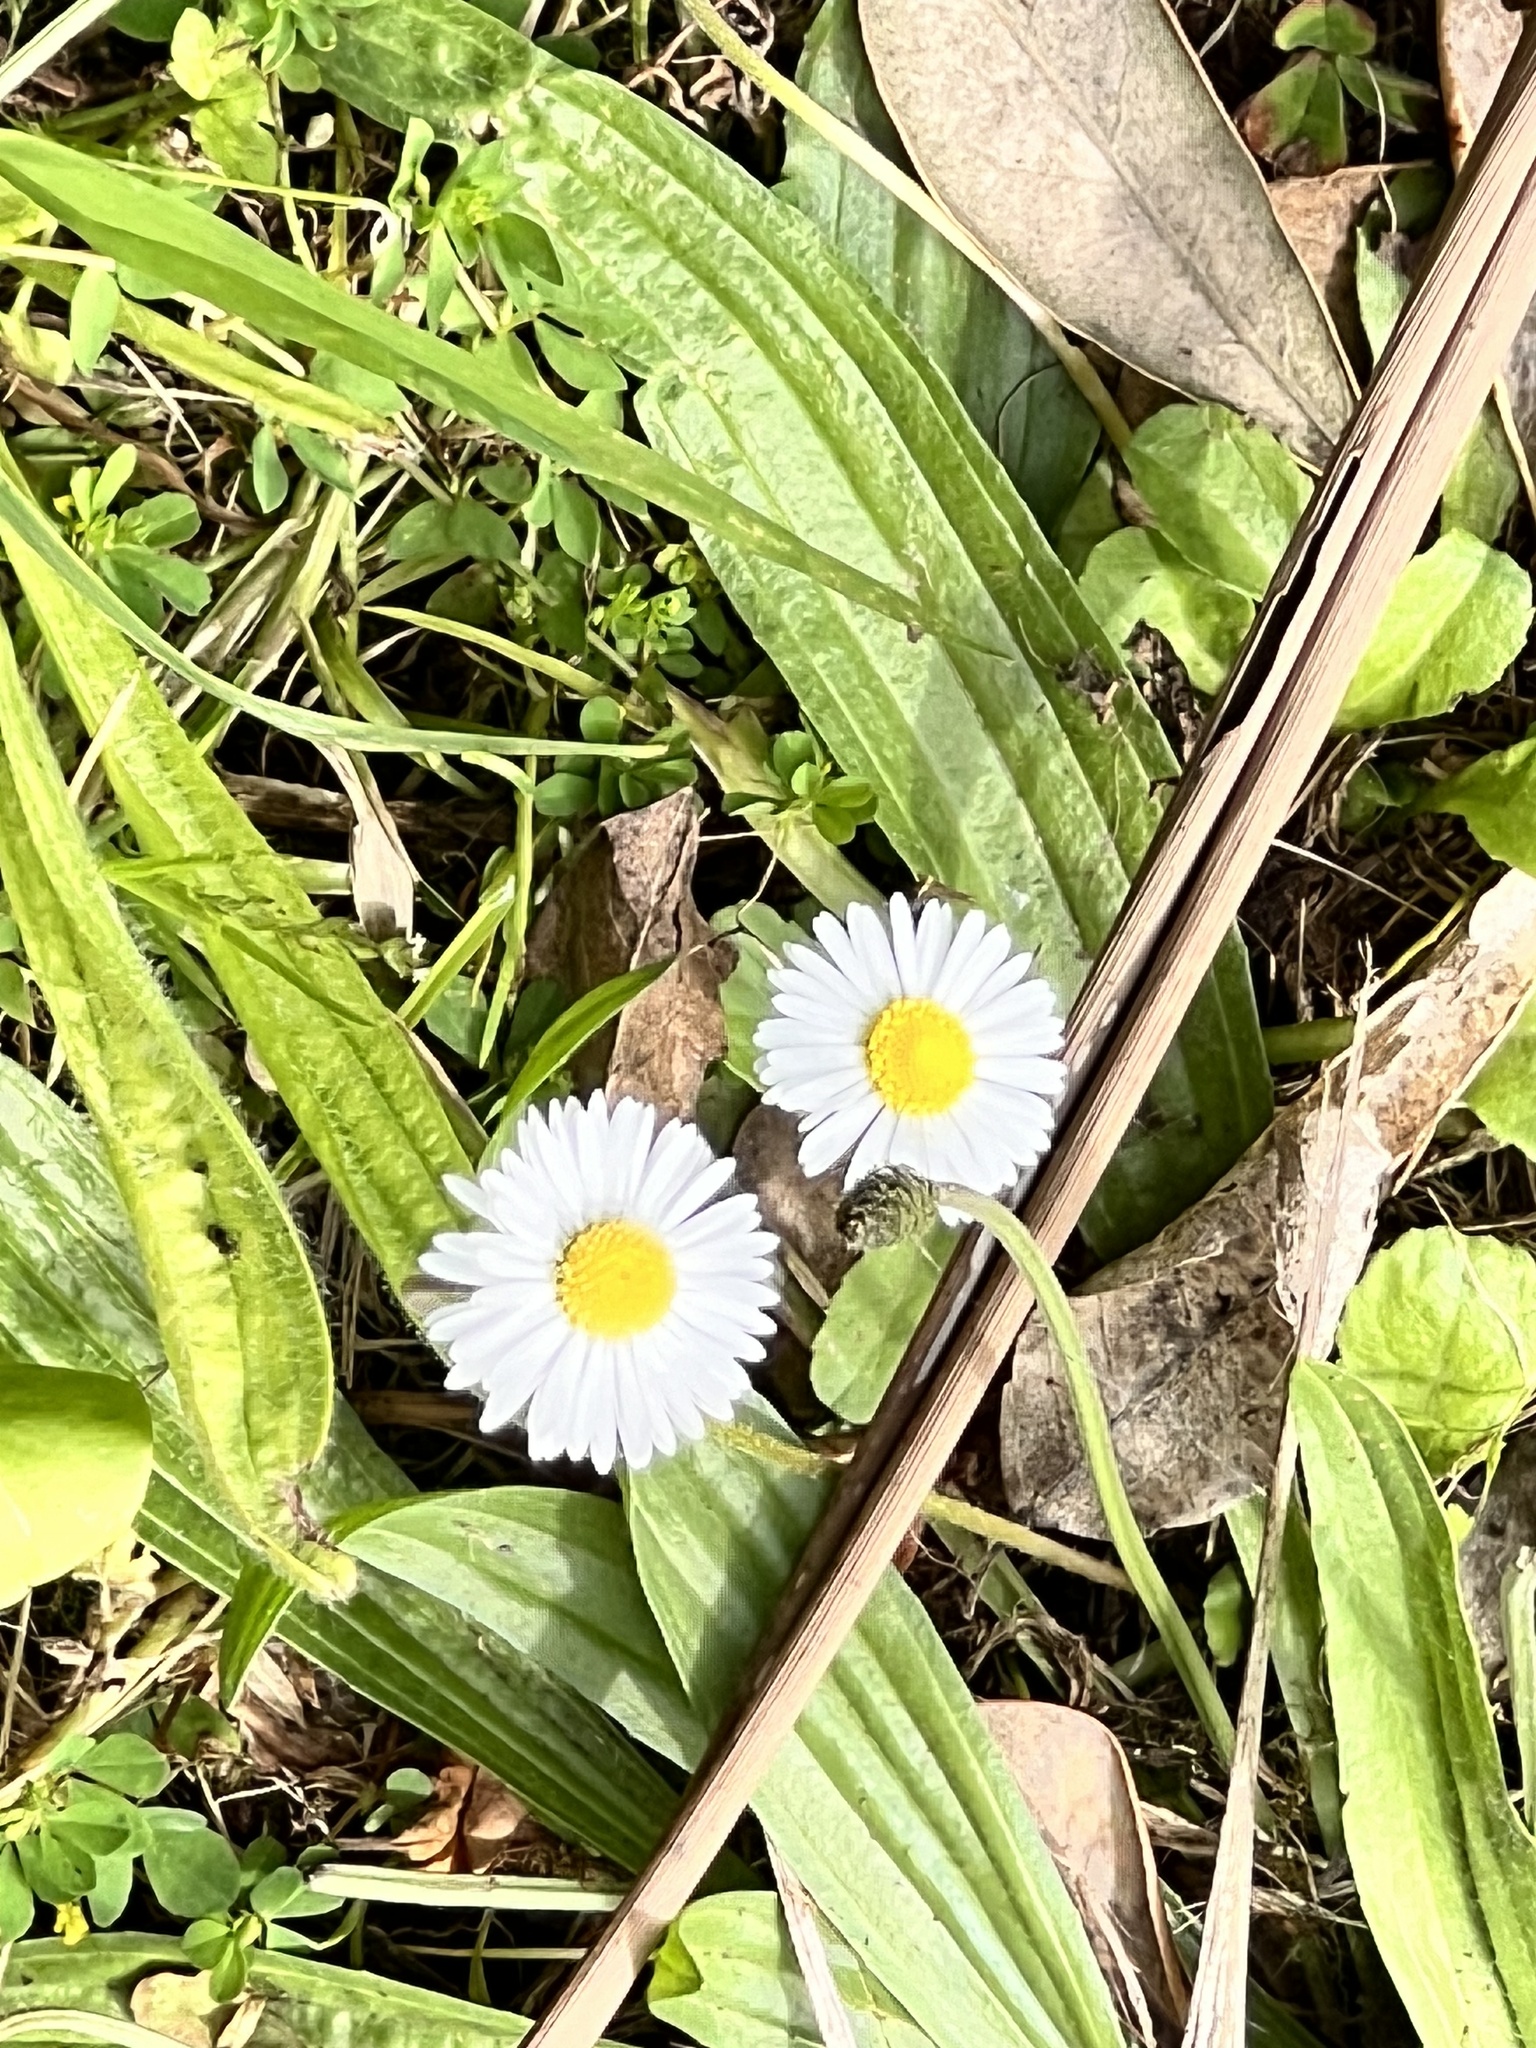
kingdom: Plantae
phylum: Tracheophyta
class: Magnoliopsida
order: Asterales
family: Asteraceae
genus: Bellis
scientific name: Bellis perennis
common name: Lawndaisy
